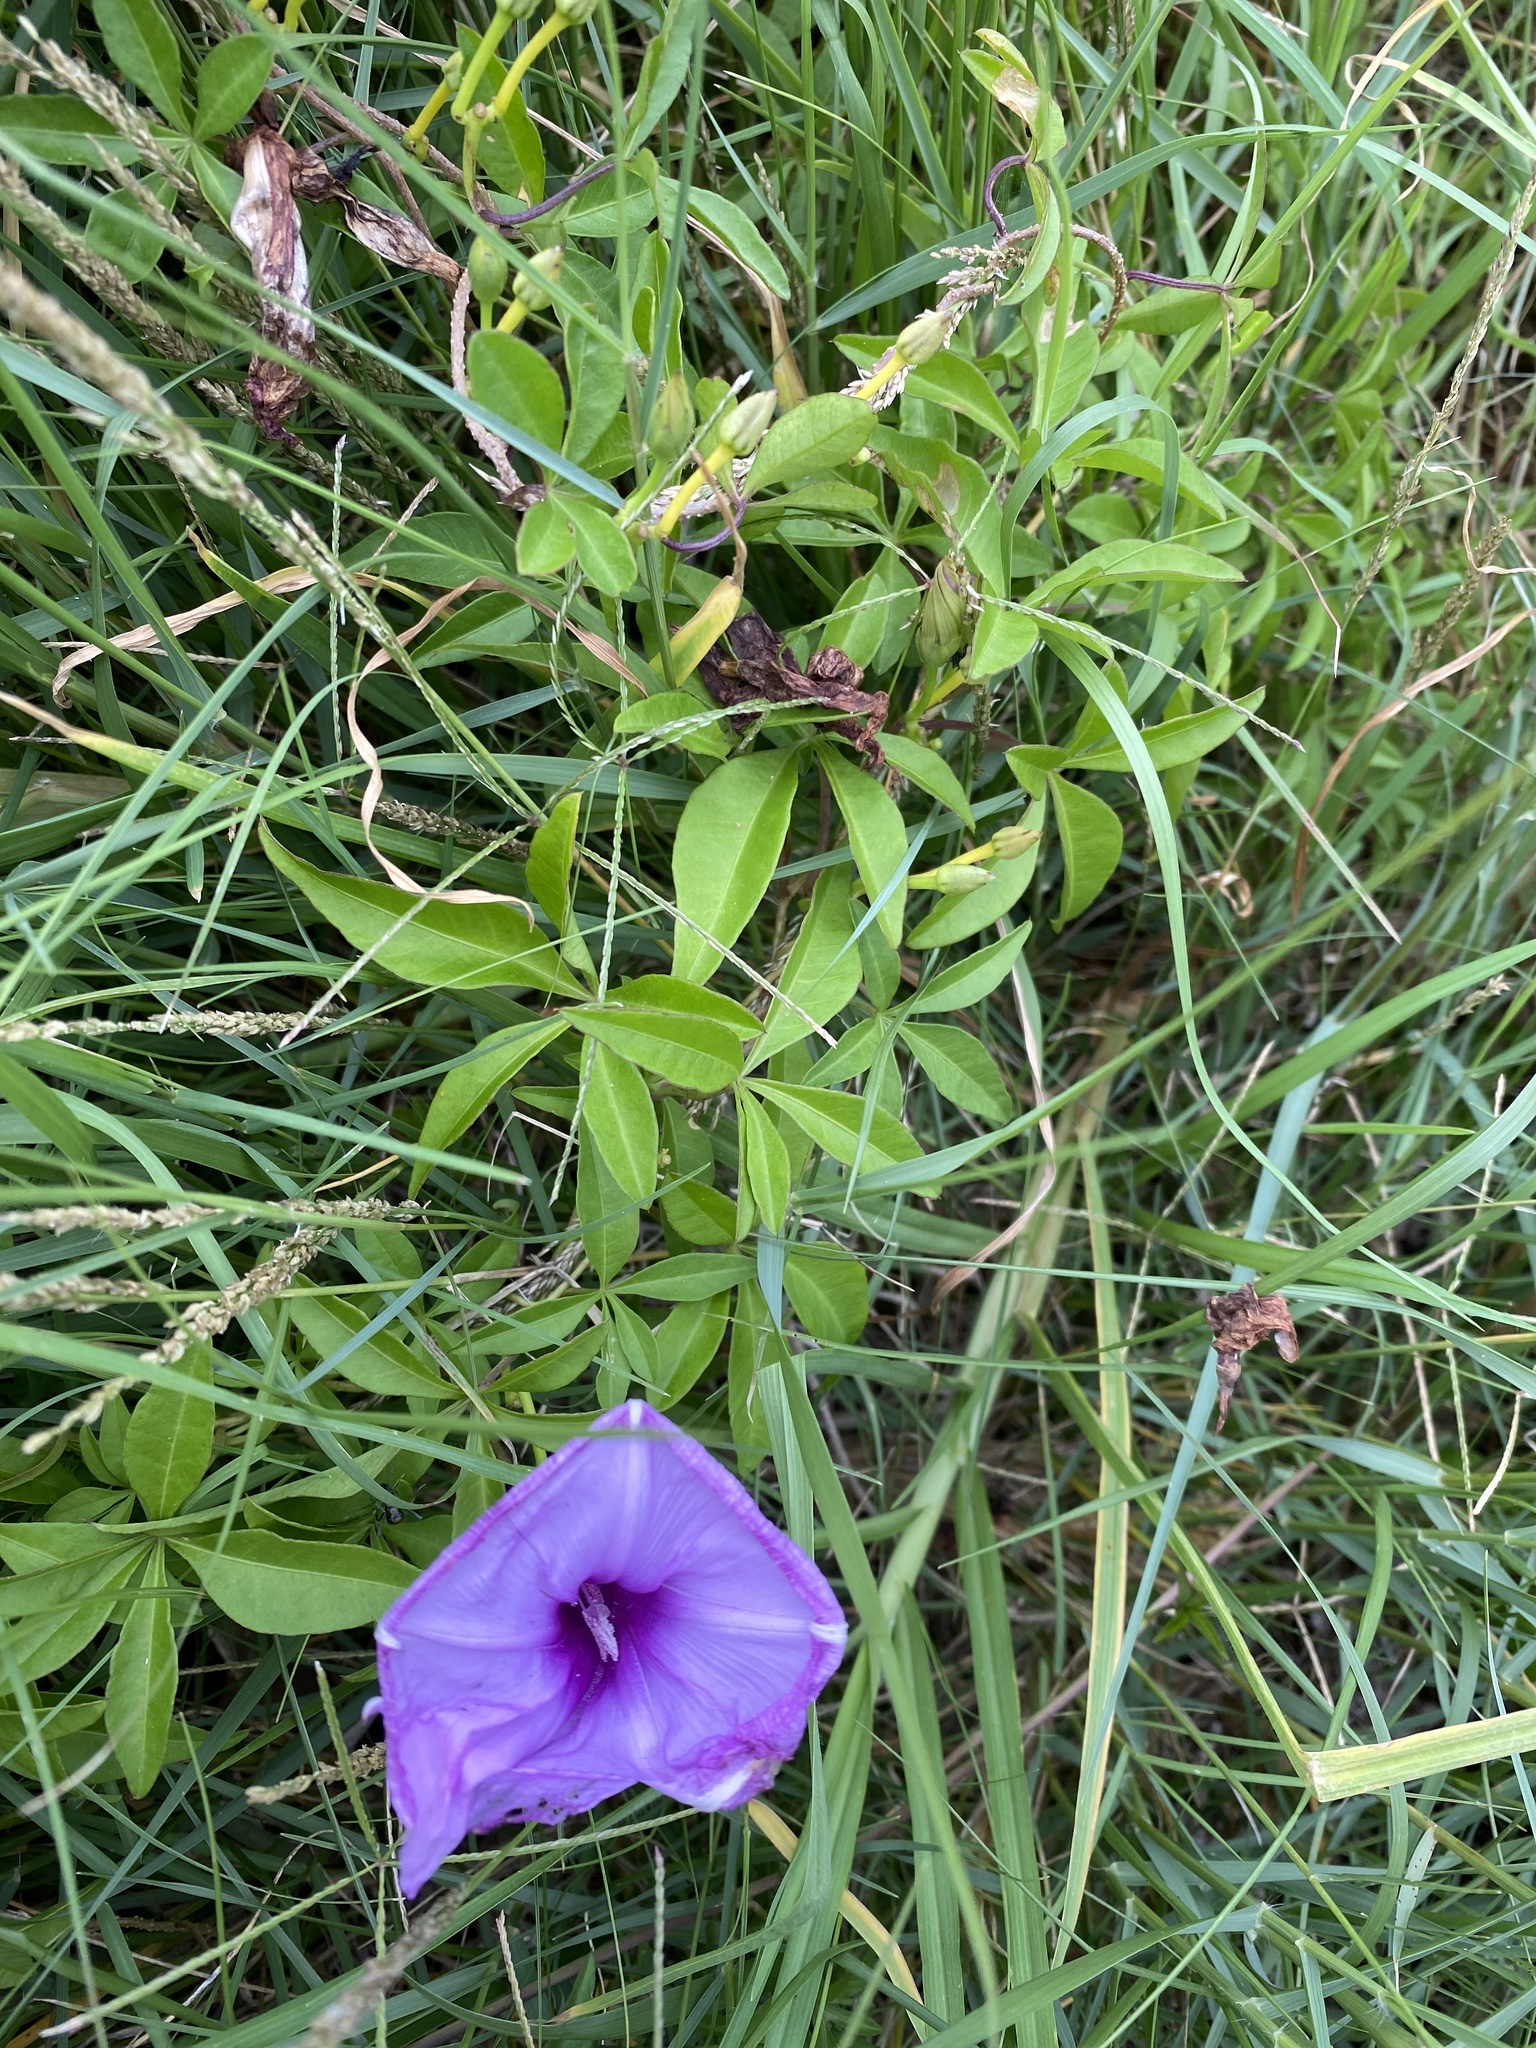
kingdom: Plantae
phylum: Tracheophyta
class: Magnoliopsida
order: Solanales
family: Convolvulaceae
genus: Ipomoea
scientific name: Ipomoea cairica
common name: Mile a minute vine
